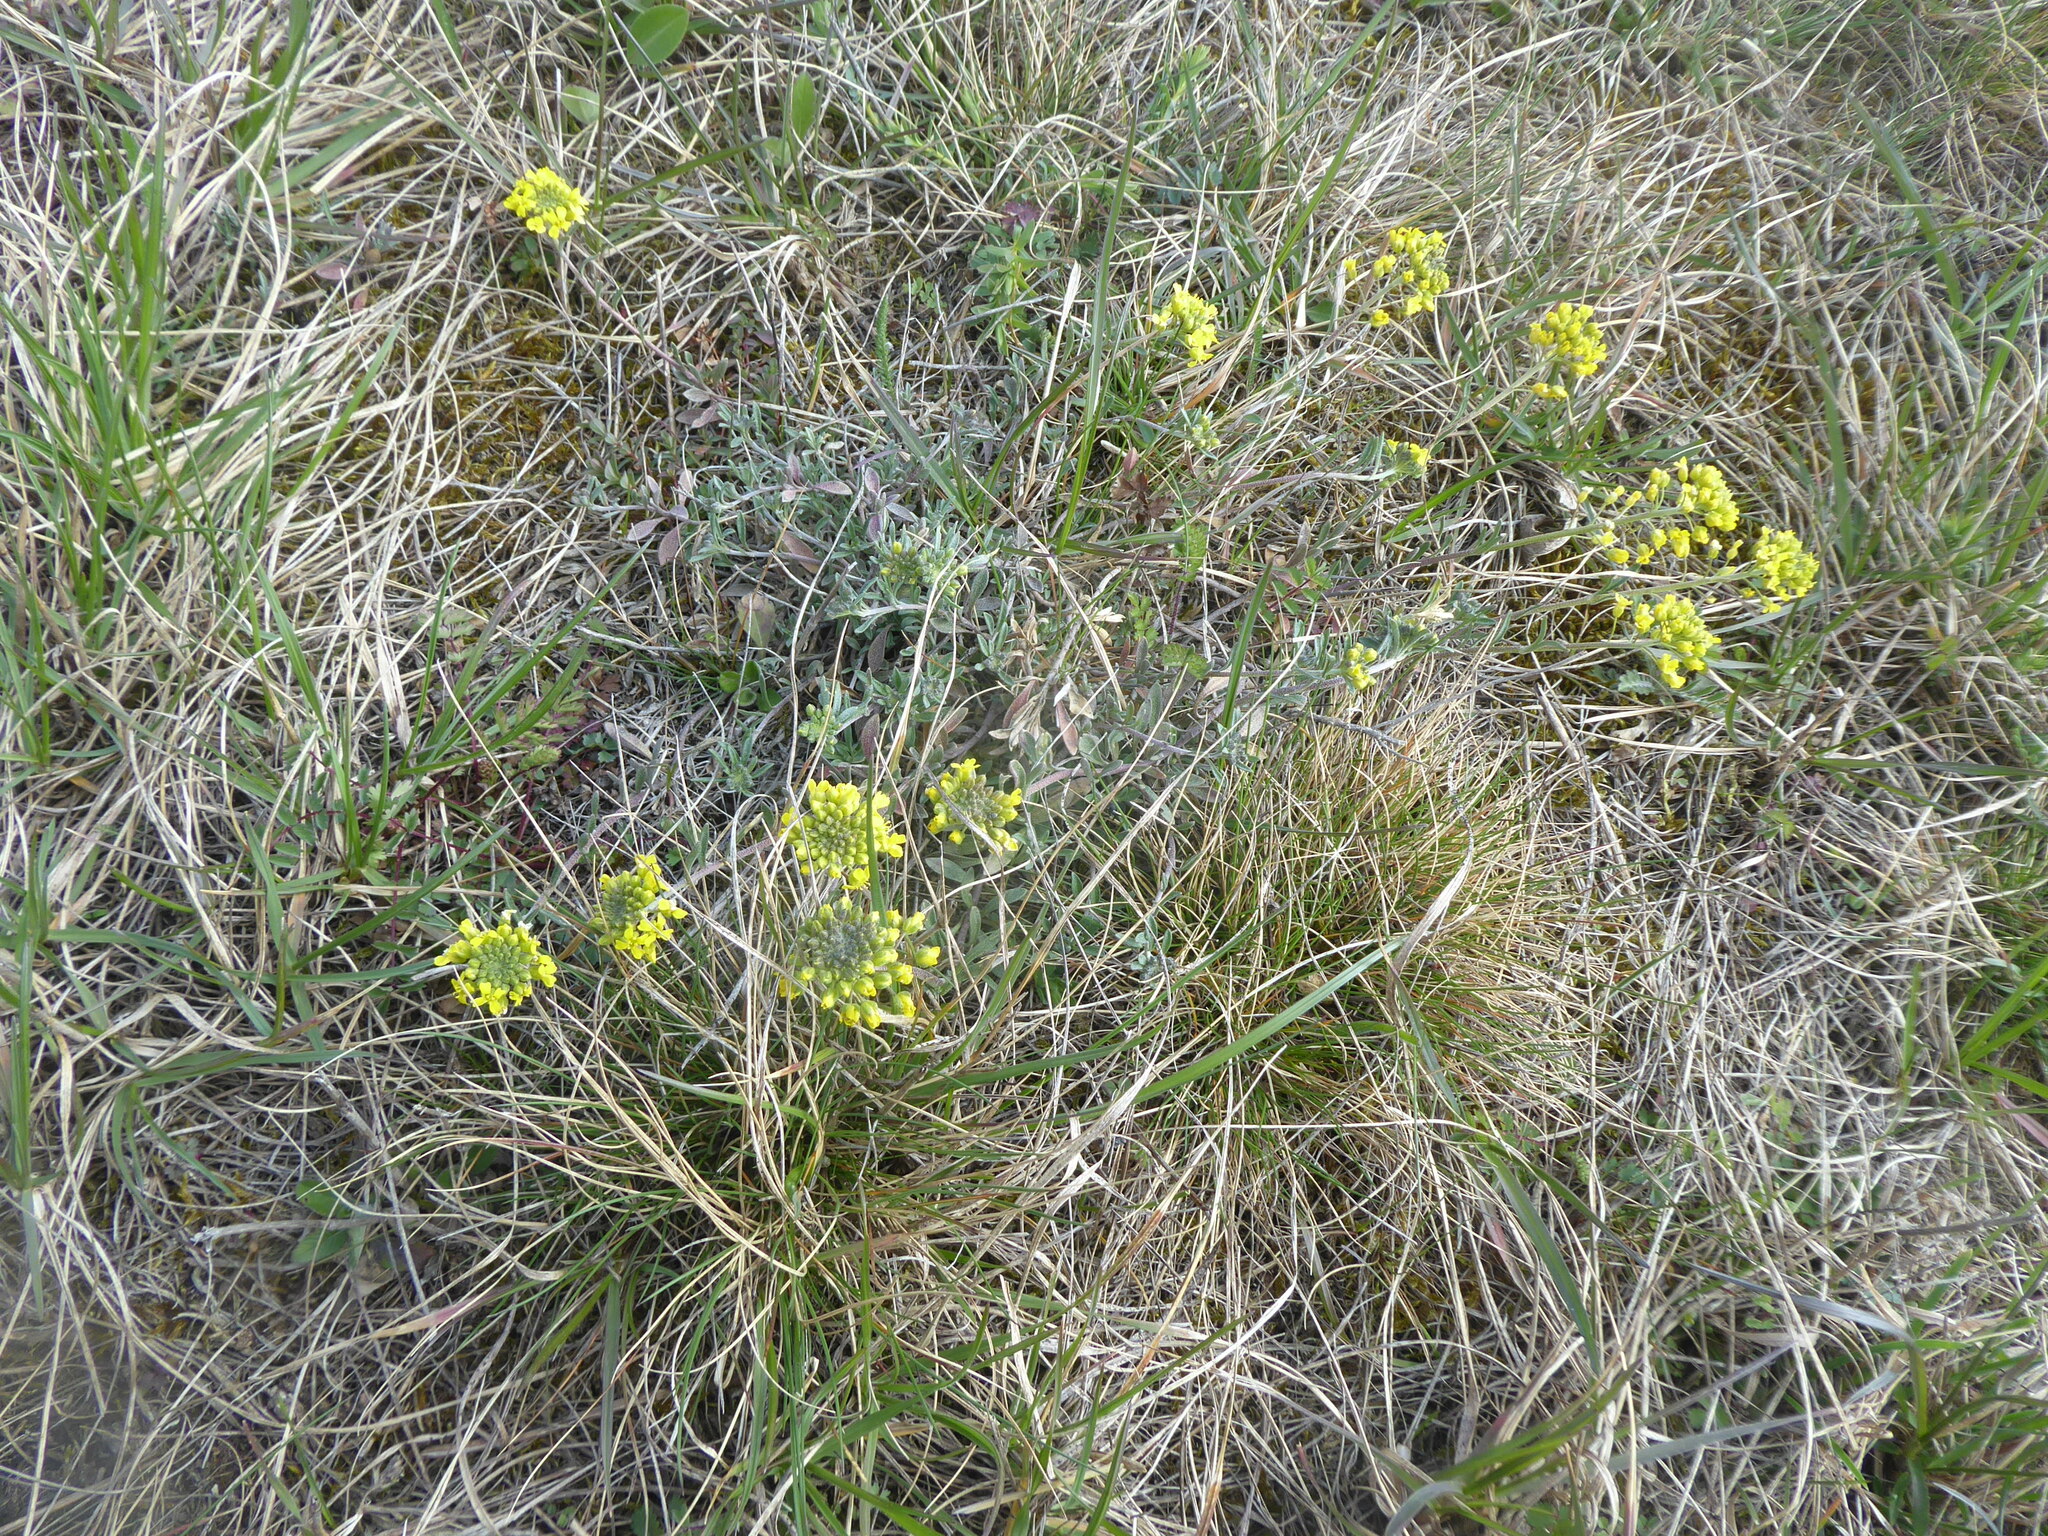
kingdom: Plantae
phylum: Tracheophyta
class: Magnoliopsida
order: Brassicales
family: Brassicaceae
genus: Alyssum
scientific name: Alyssum gmelinii
